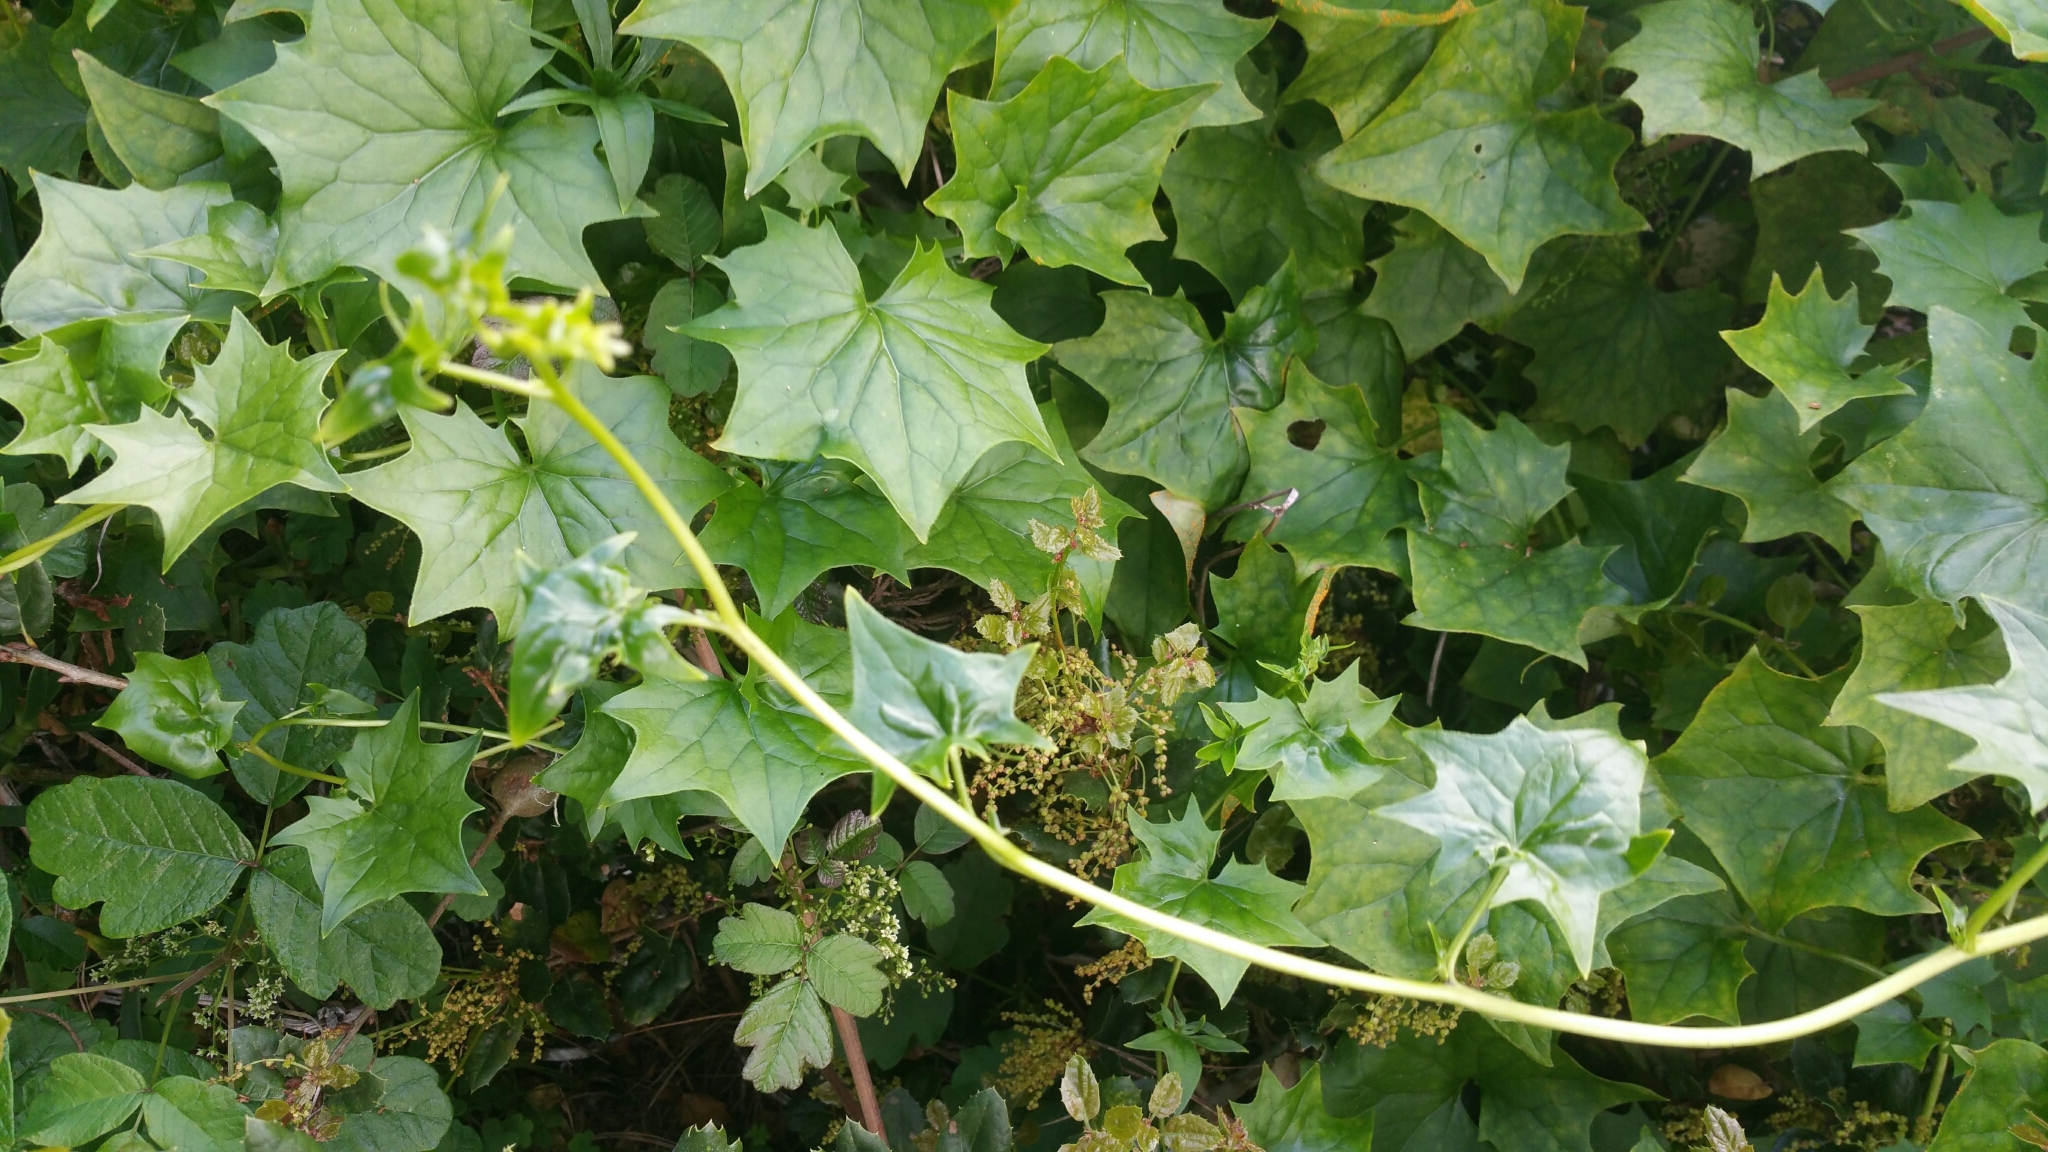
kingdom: Plantae
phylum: Tracheophyta
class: Magnoliopsida
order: Asterales
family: Asteraceae
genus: Delairea
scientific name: Delairea odorata
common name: Cape-ivy
